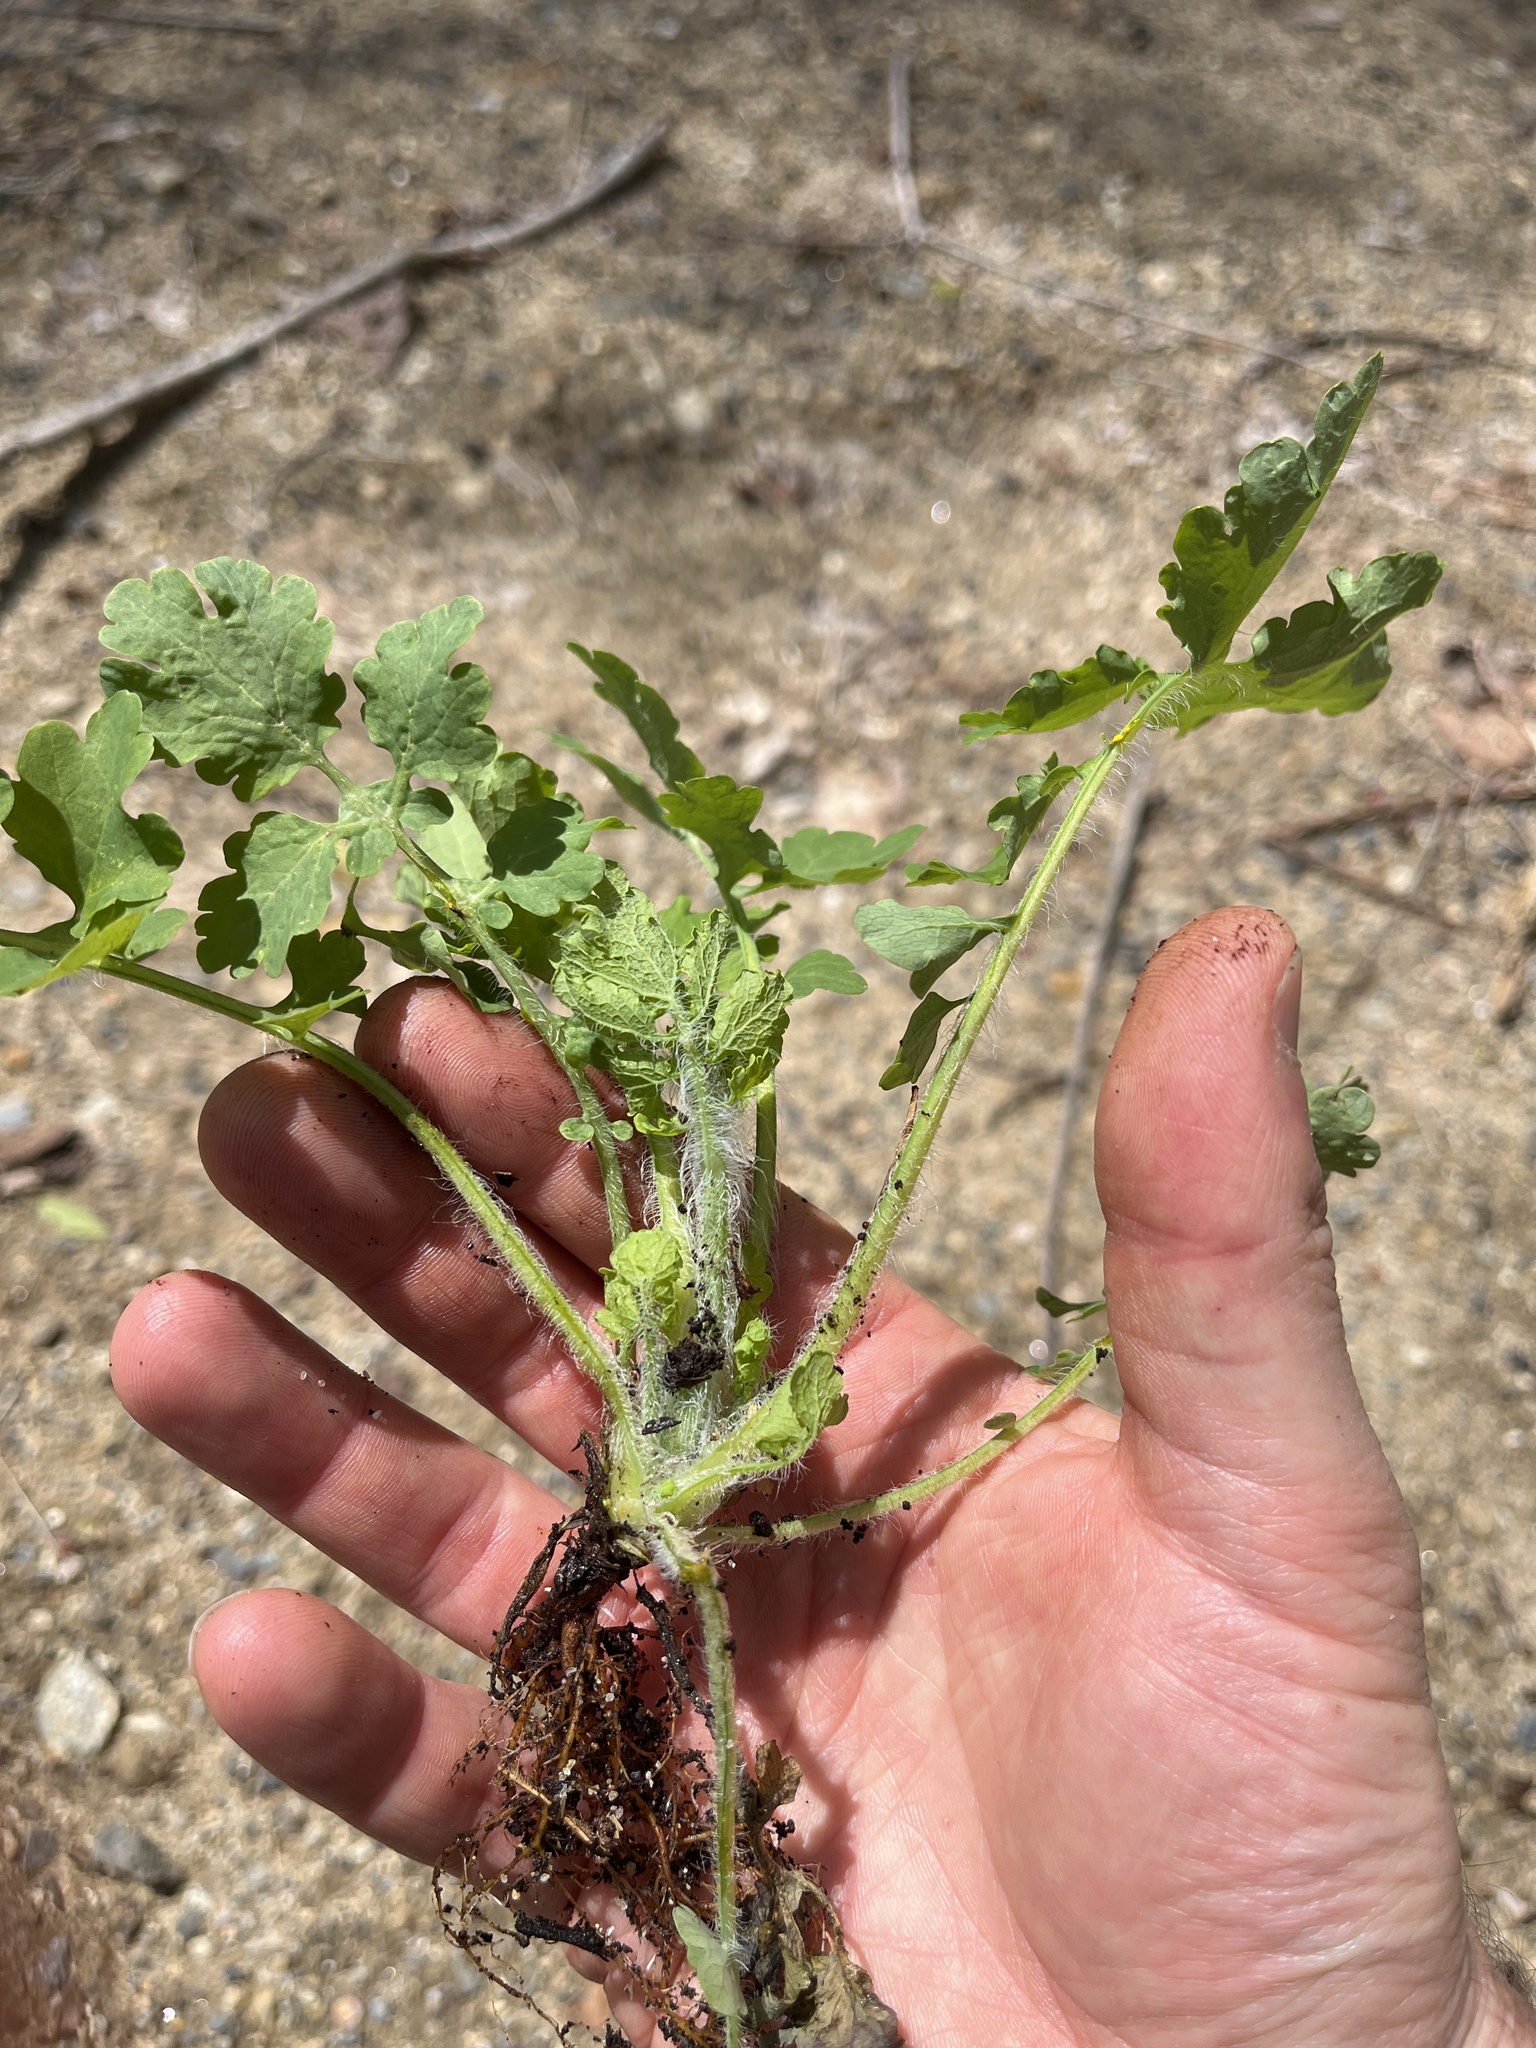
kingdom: Plantae
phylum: Tracheophyta
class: Magnoliopsida
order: Ranunculales
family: Papaveraceae
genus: Chelidonium
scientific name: Chelidonium majus
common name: Greater celandine
